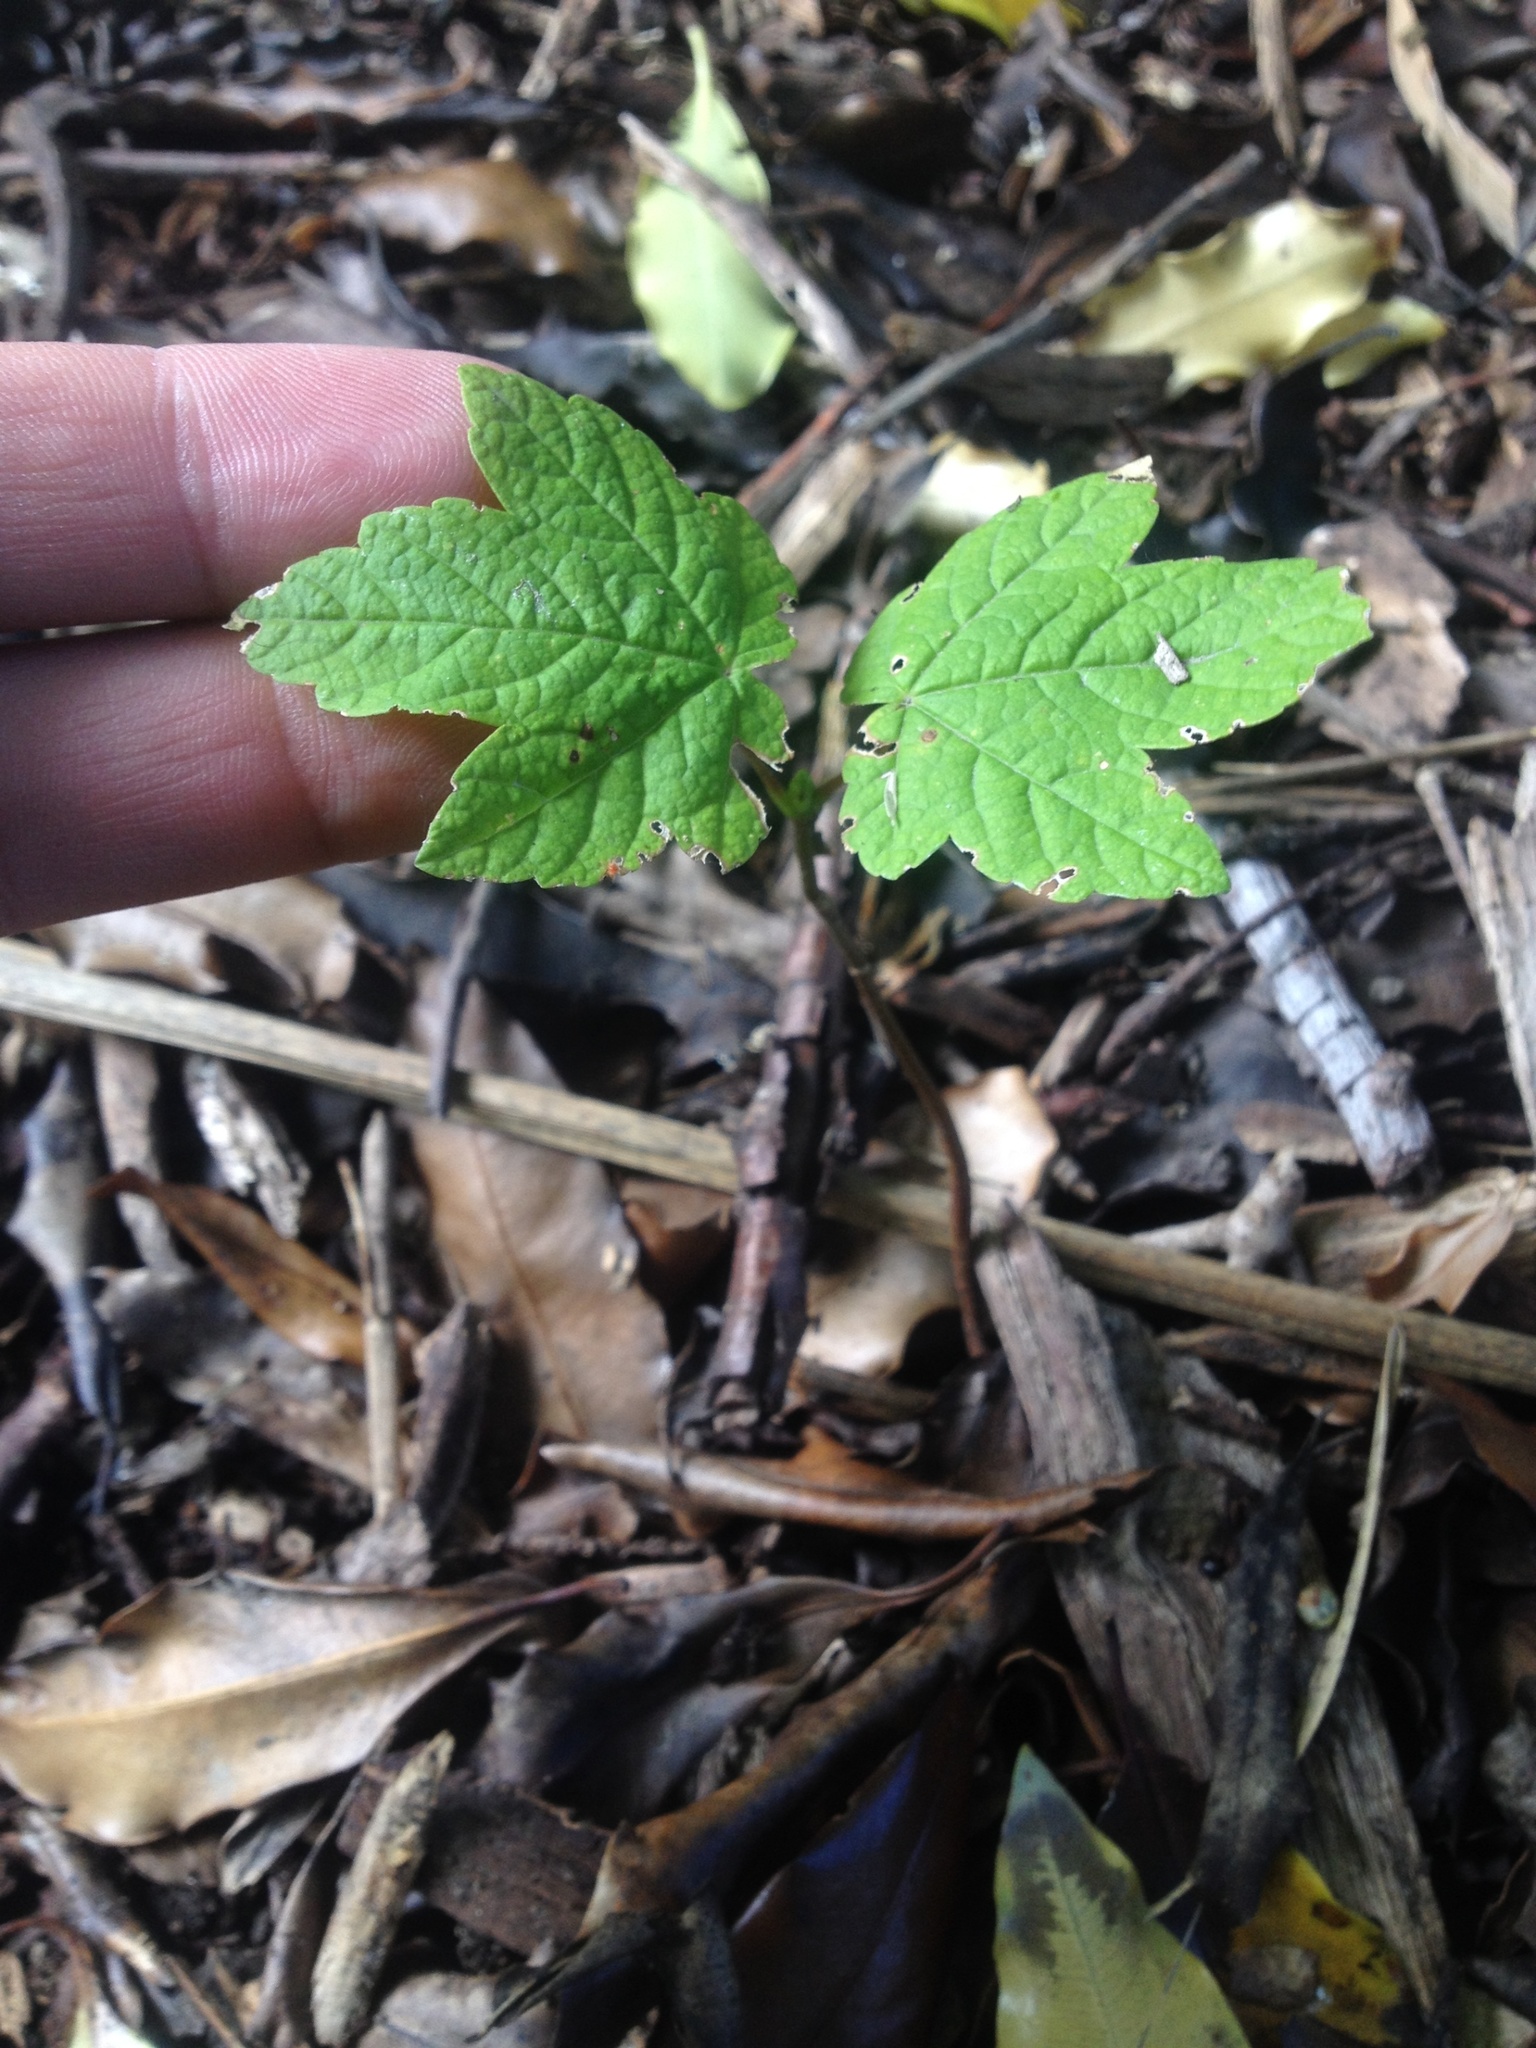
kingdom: Plantae
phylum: Tracheophyta
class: Magnoliopsida
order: Sapindales
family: Sapindaceae
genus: Acer
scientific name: Acer pseudoplatanus
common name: Sycamore
